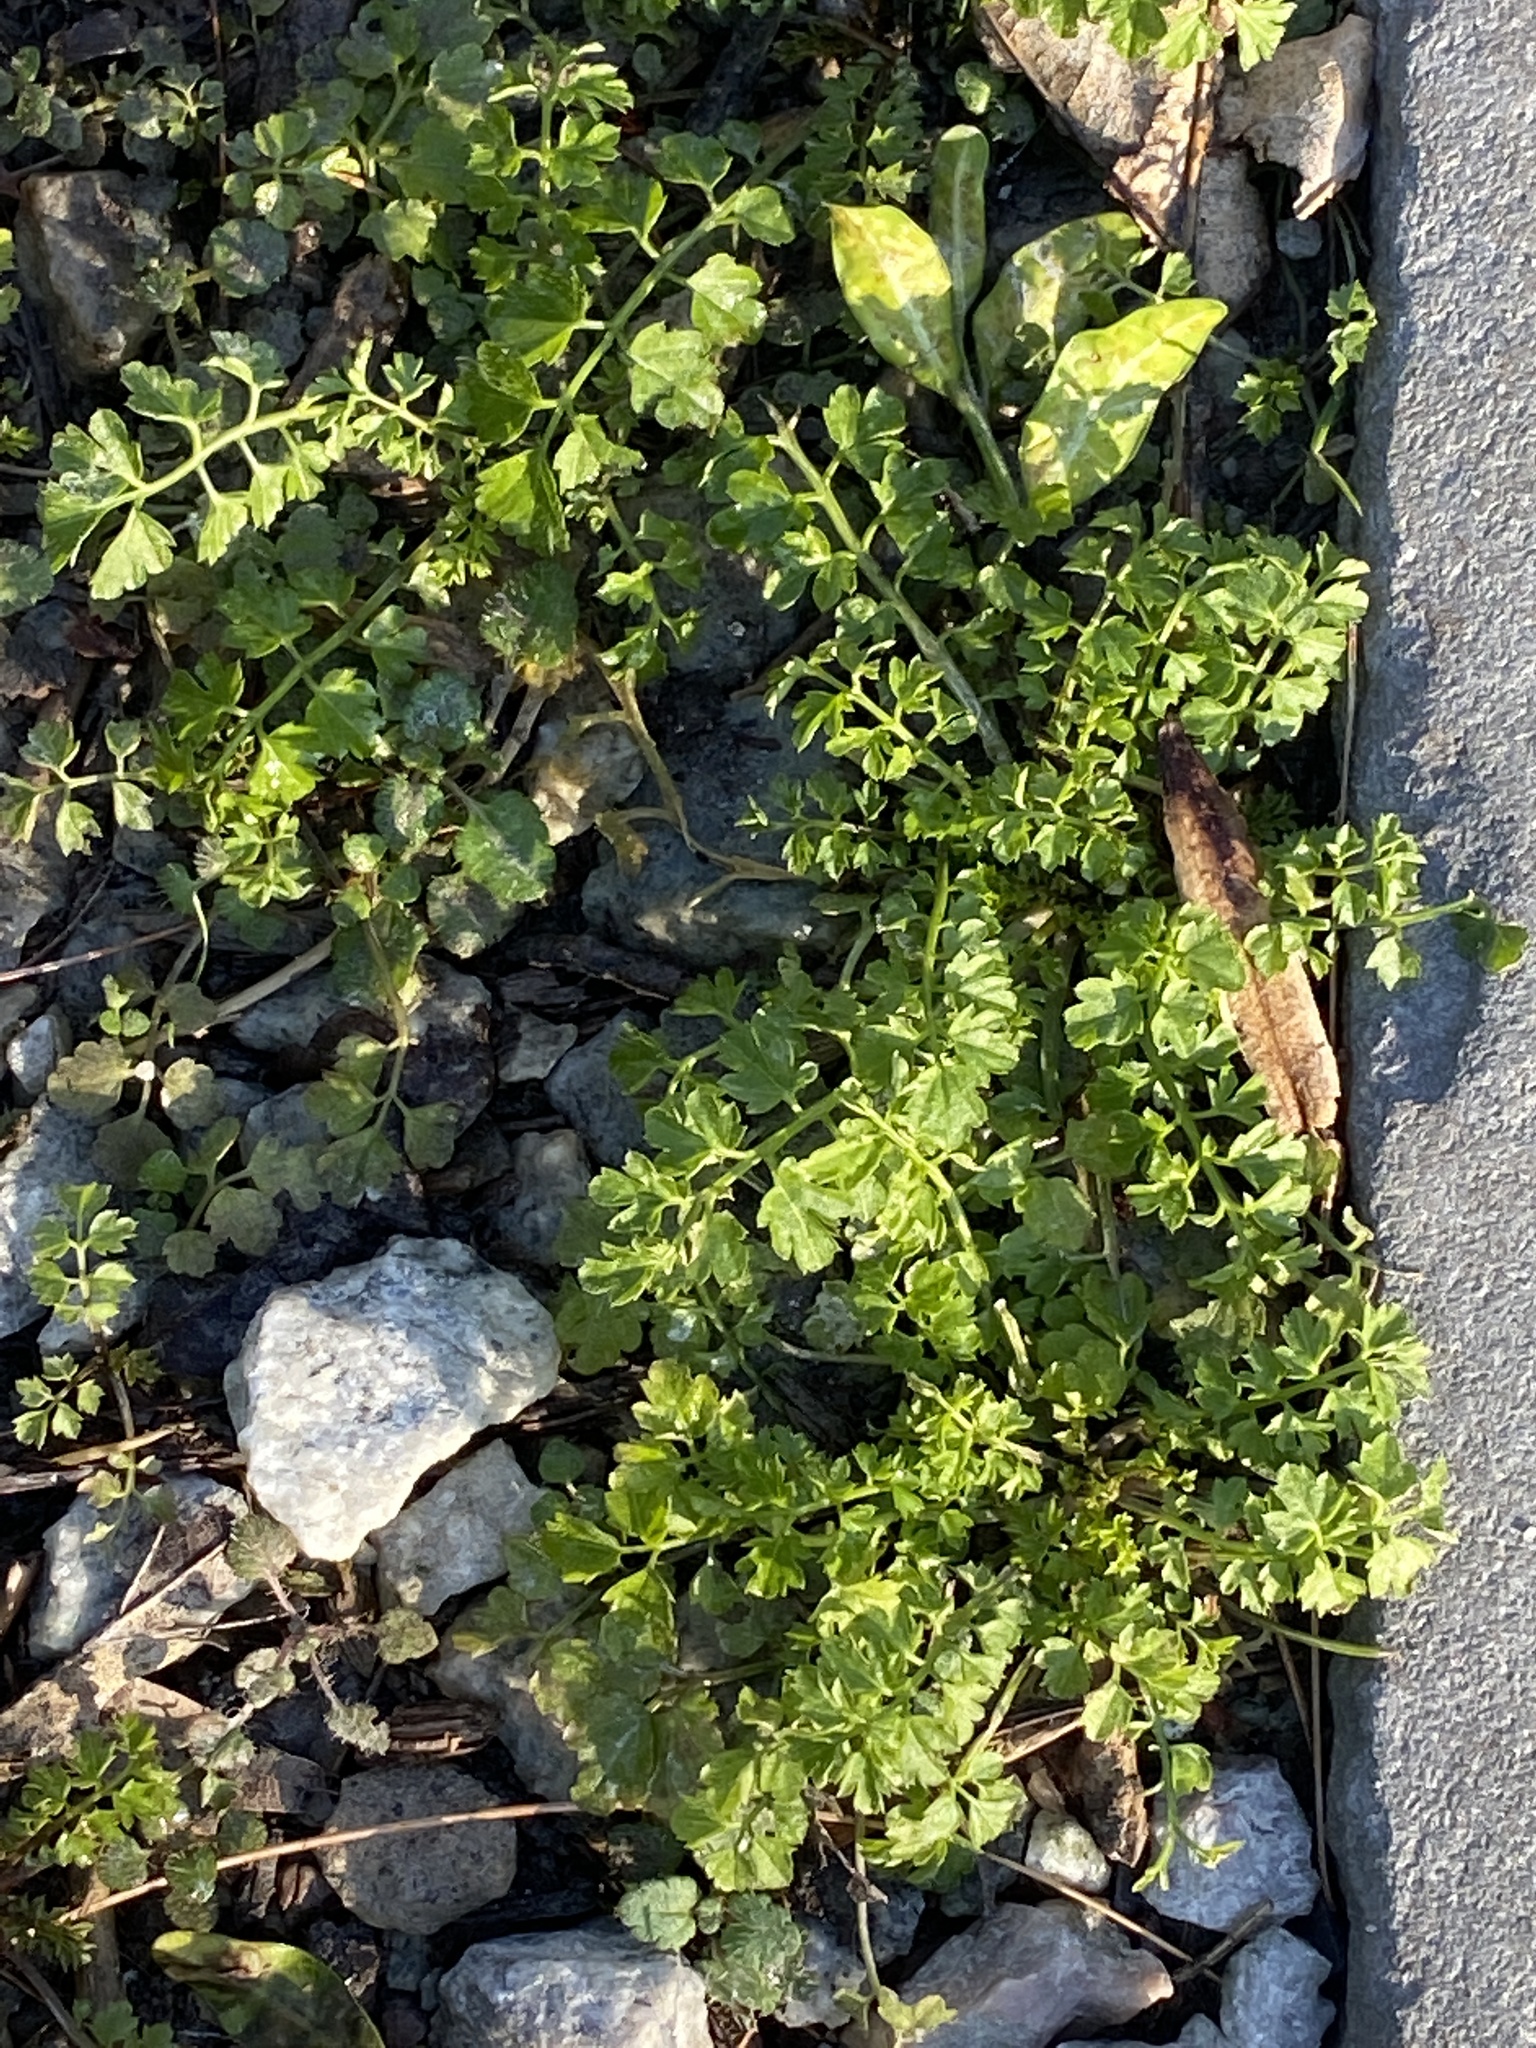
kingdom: Plantae
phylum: Tracheophyta
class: Magnoliopsida
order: Brassicales
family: Brassicaceae
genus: Cardamine
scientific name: Cardamine impatiens
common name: Narrow-leaved bitter-cress
